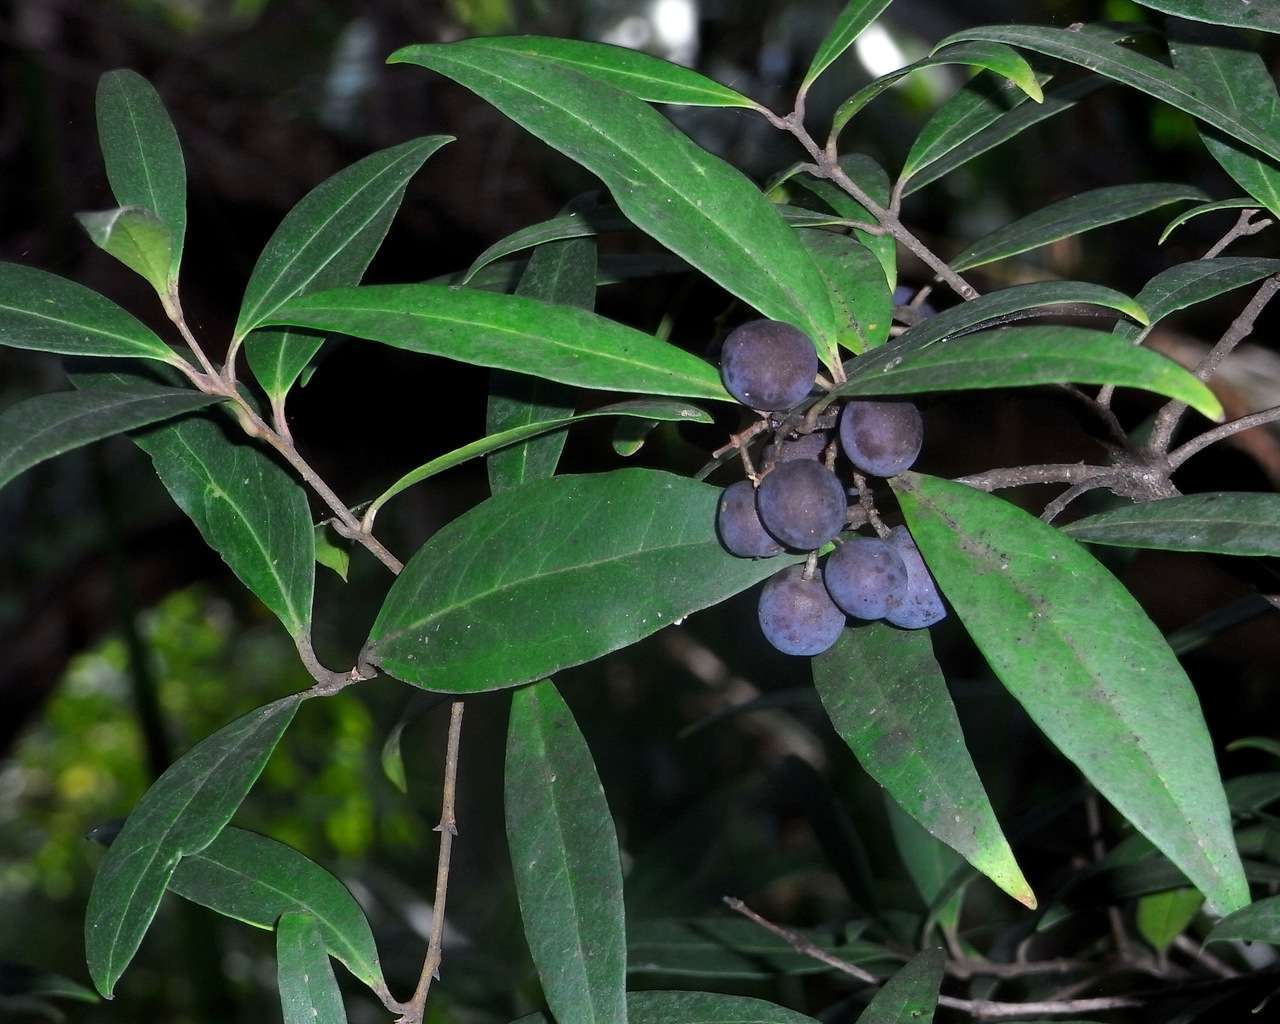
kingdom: Plantae
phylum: Tracheophyta
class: Magnoliopsida
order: Lamiales
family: Oleaceae
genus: Notelaea
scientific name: Notelaea ligustrina
